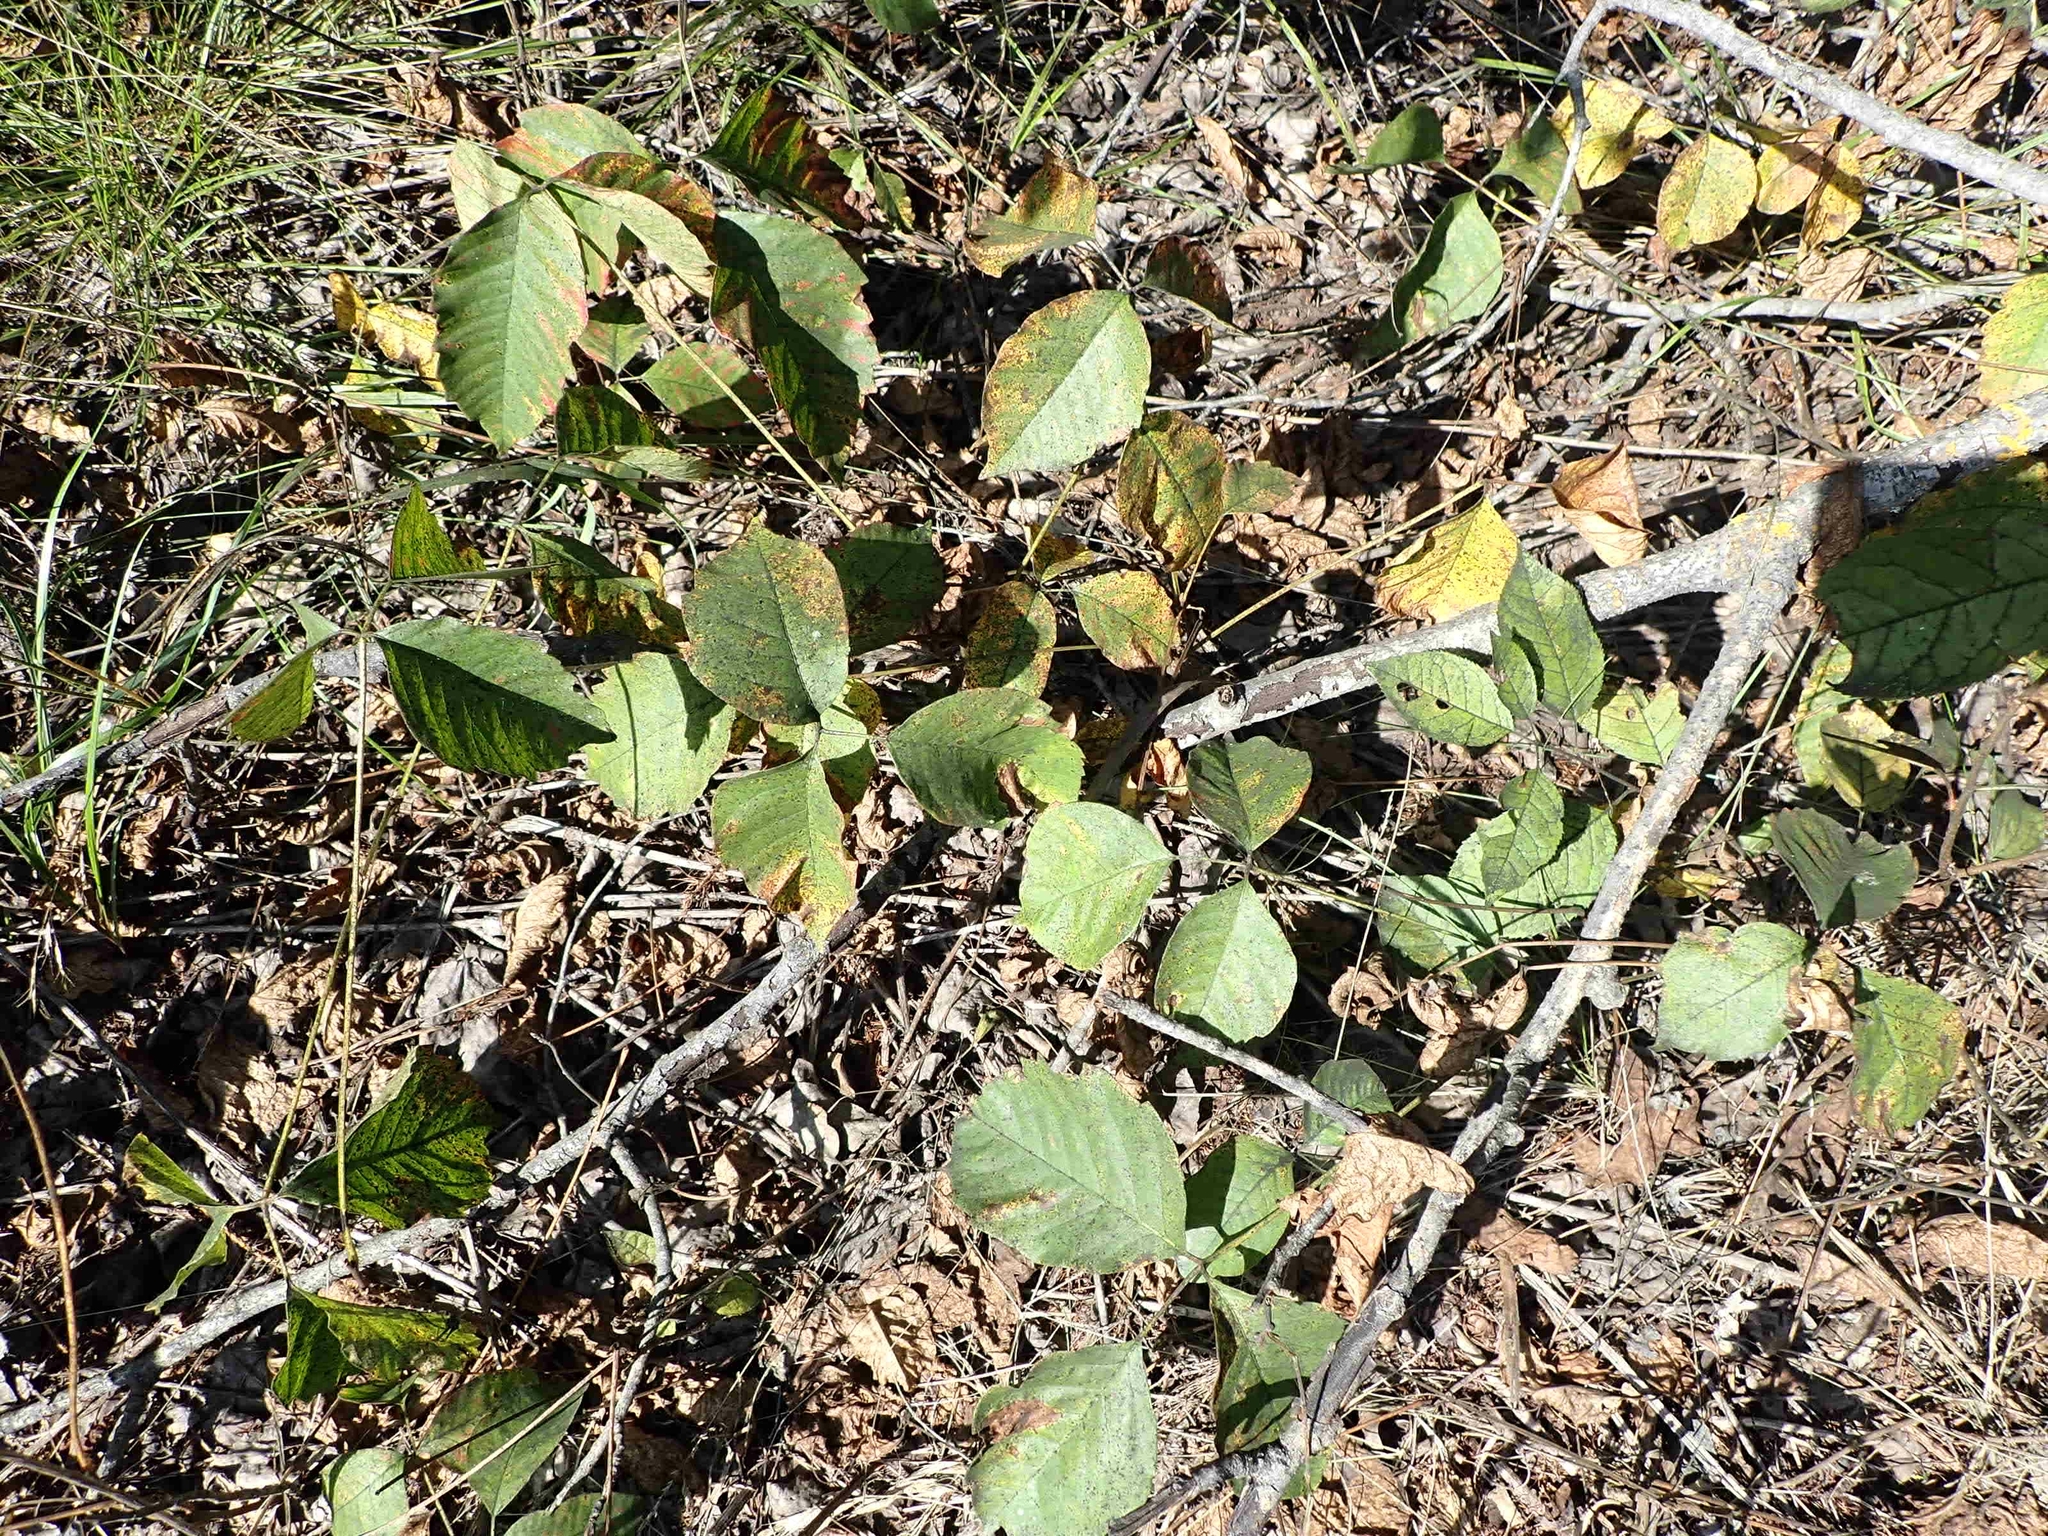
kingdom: Plantae
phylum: Tracheophyta
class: Magnoliopsida
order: Sapindales
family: Anacardiaceae
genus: Toxicodendron
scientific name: Toxicodendron rydbergii
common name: Rydberg's poison-ivy
